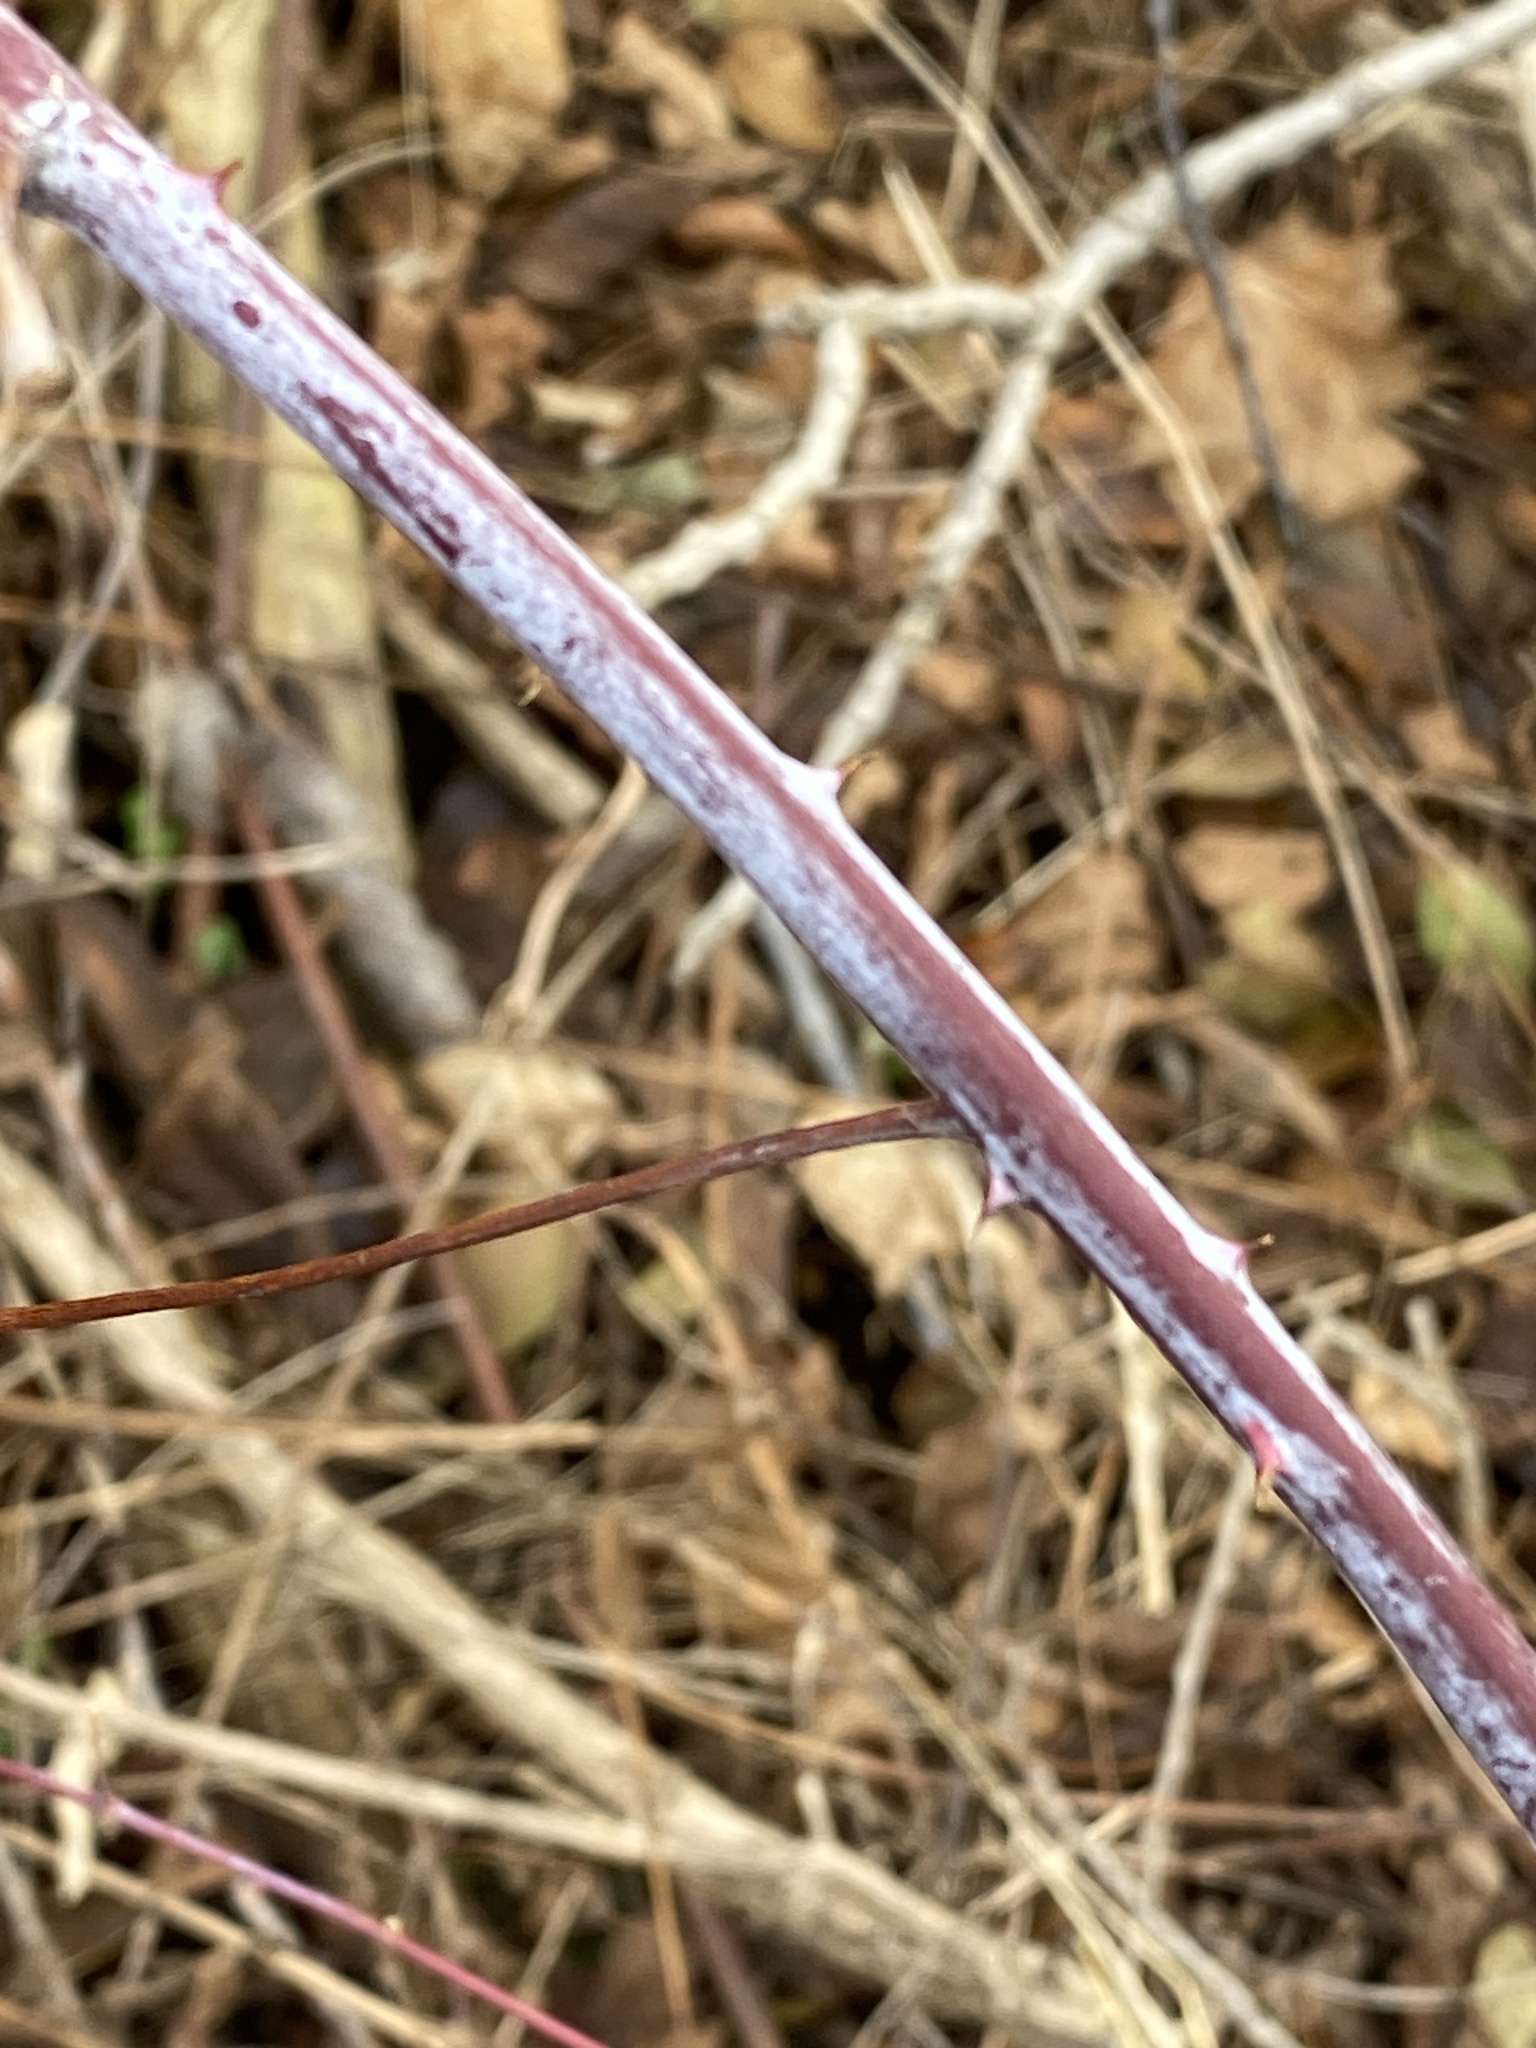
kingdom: Plantae
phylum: Tracheophyta
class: Magnoliopsida
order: Rosales
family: Rosaceae
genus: Rubus
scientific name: Rubus occidentalis
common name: Black raspberry
